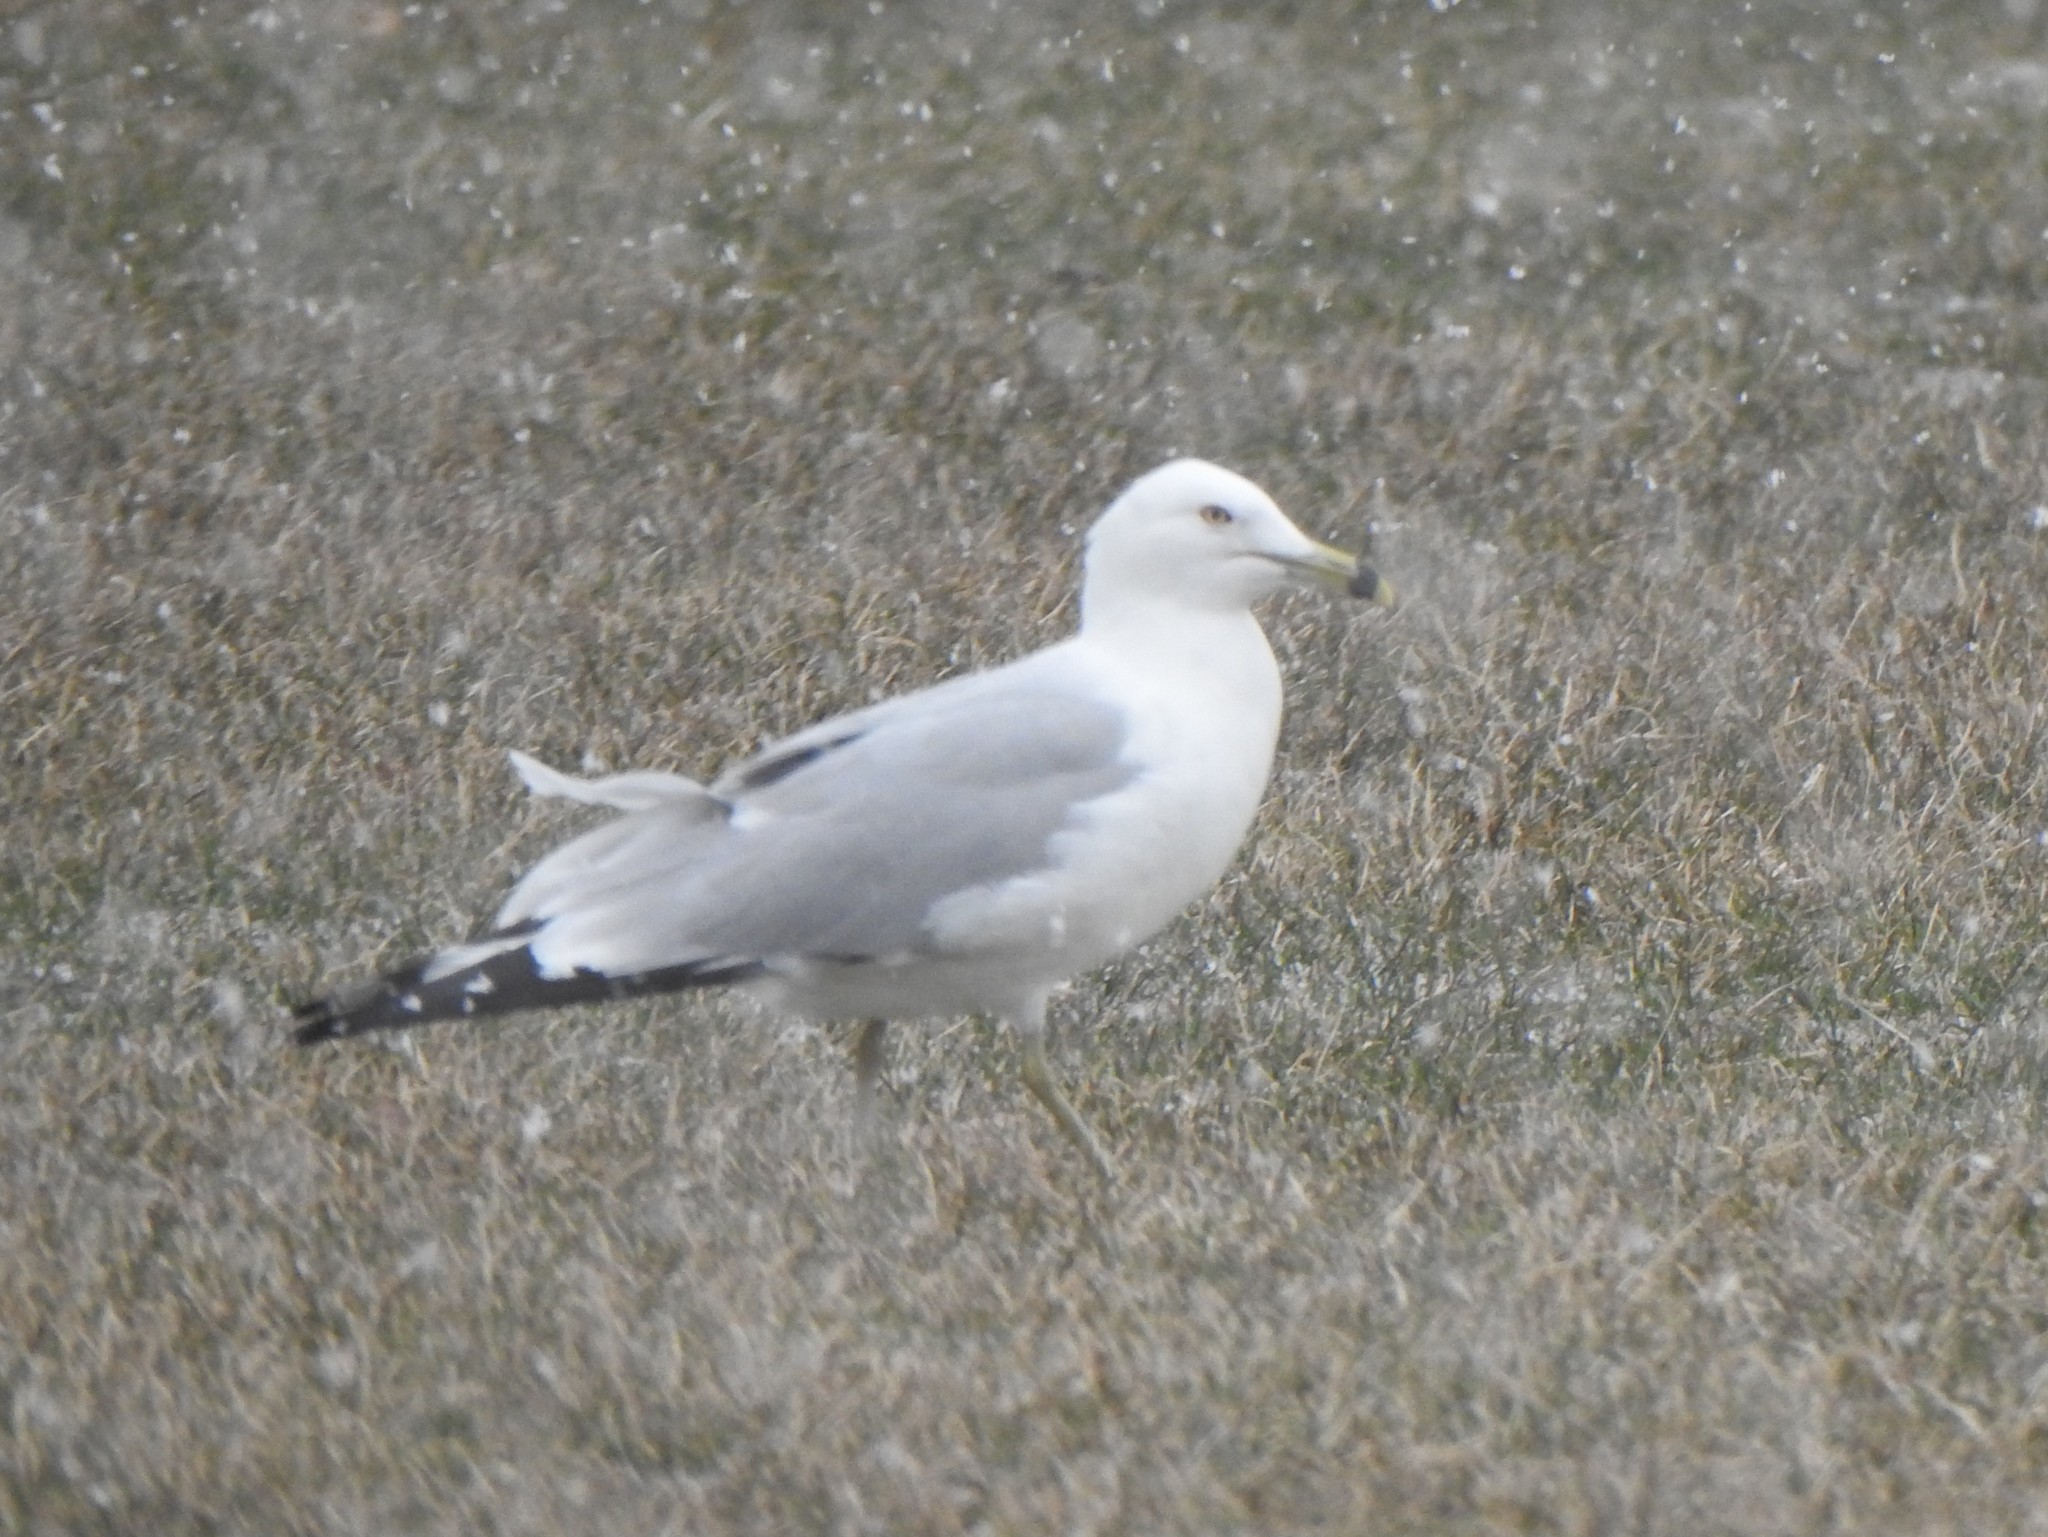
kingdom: Animalia
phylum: Chordata
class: Aves
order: Charadriiformes
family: Laridae
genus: Larus
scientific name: Larus delawarensis
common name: Ring-billed gull
